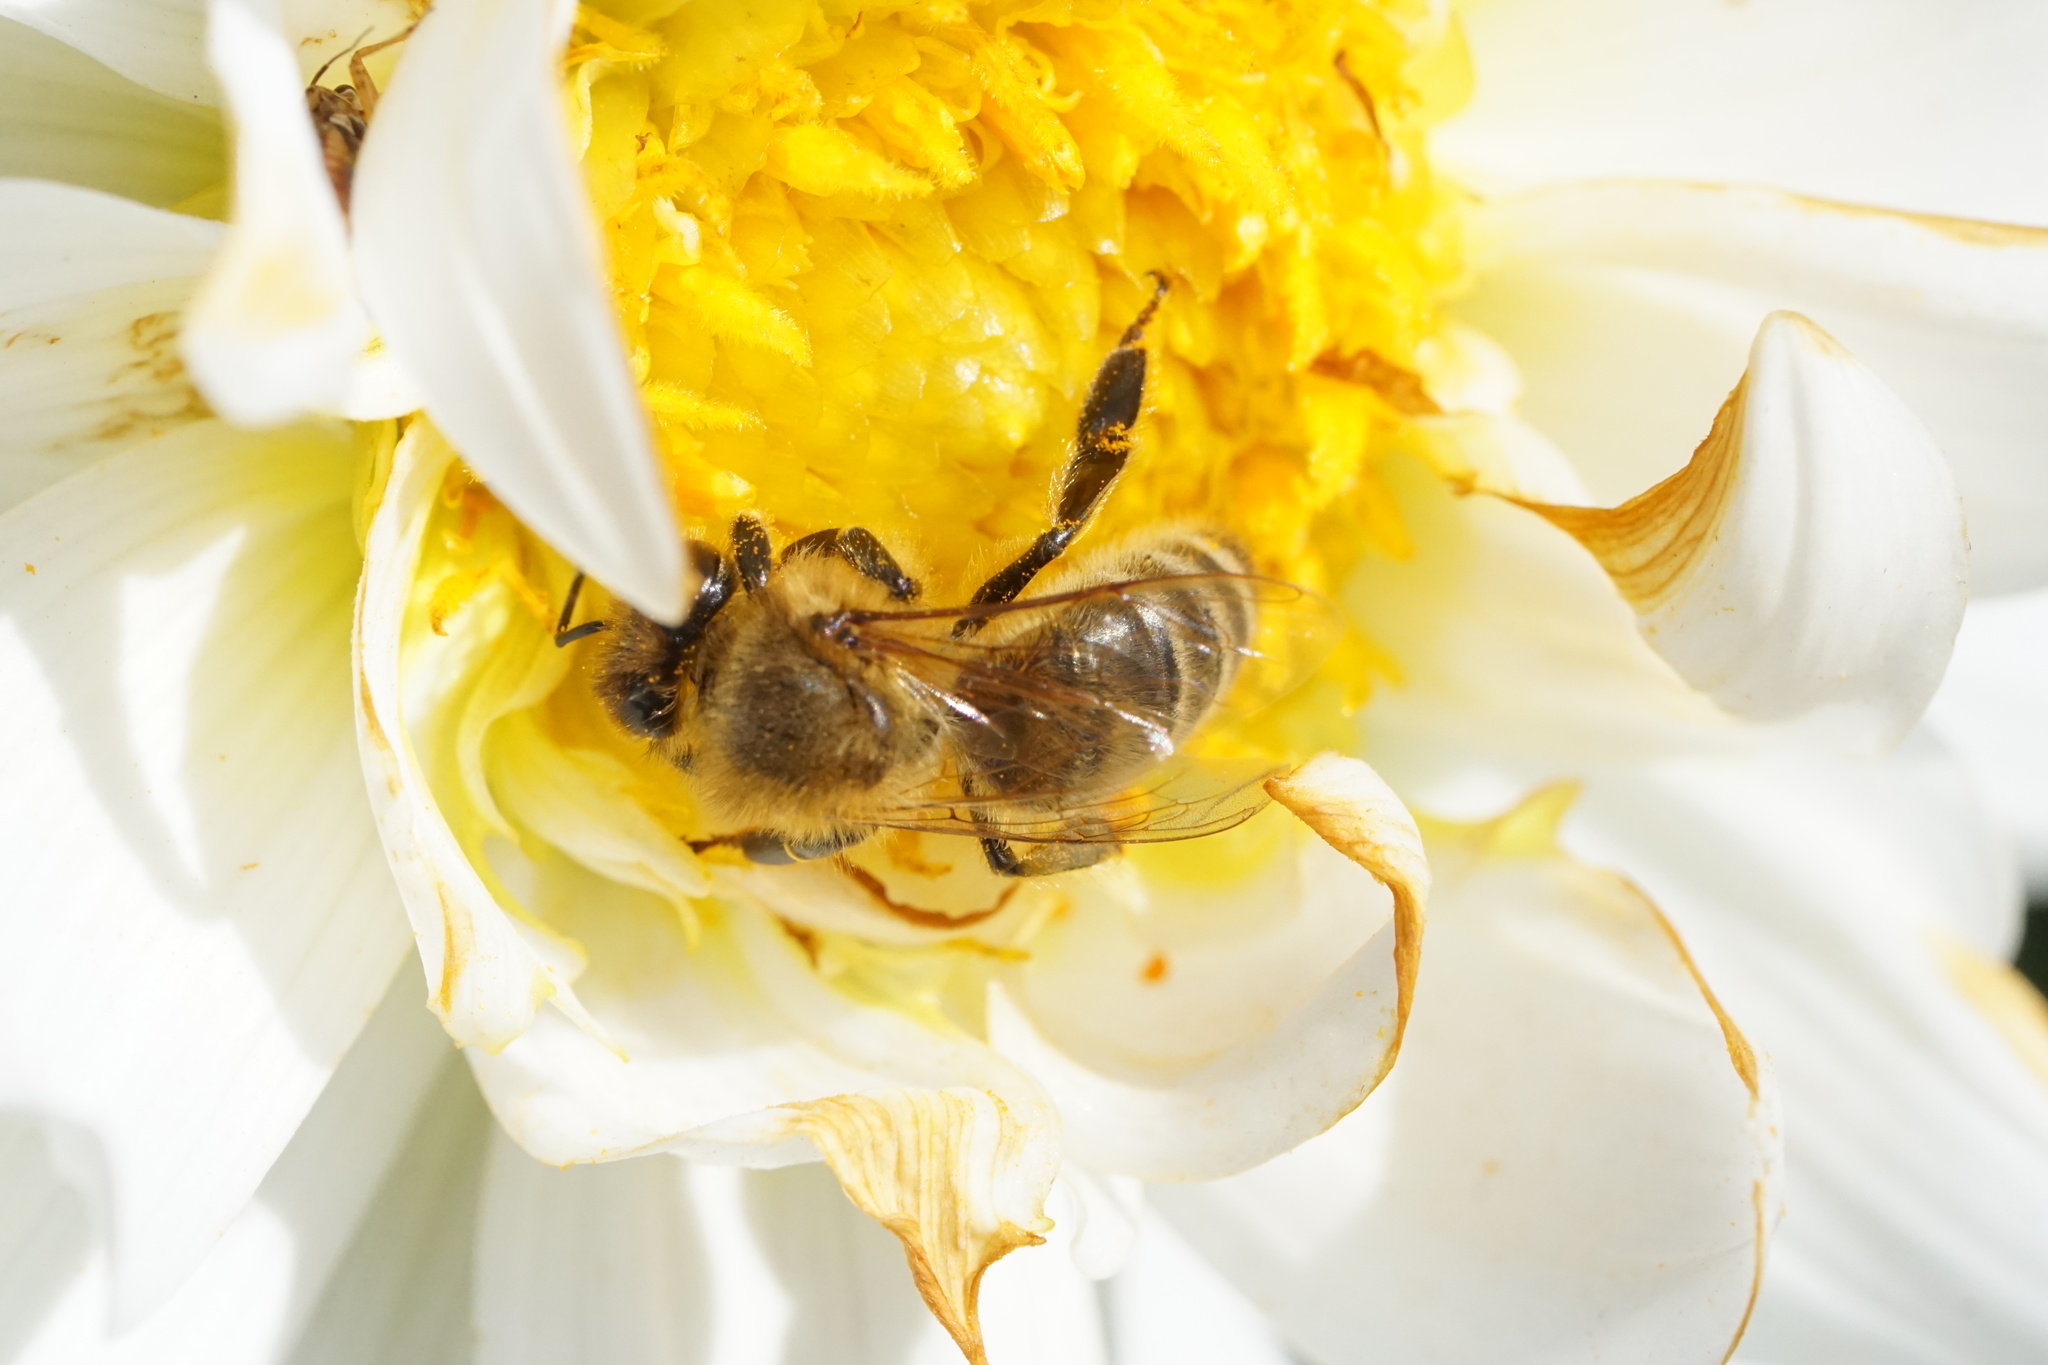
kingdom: Animalia
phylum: Arthropoda
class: Insecta
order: Hymenoptera
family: Apidae
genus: Apis
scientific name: Apis mellifera
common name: Honey bee
